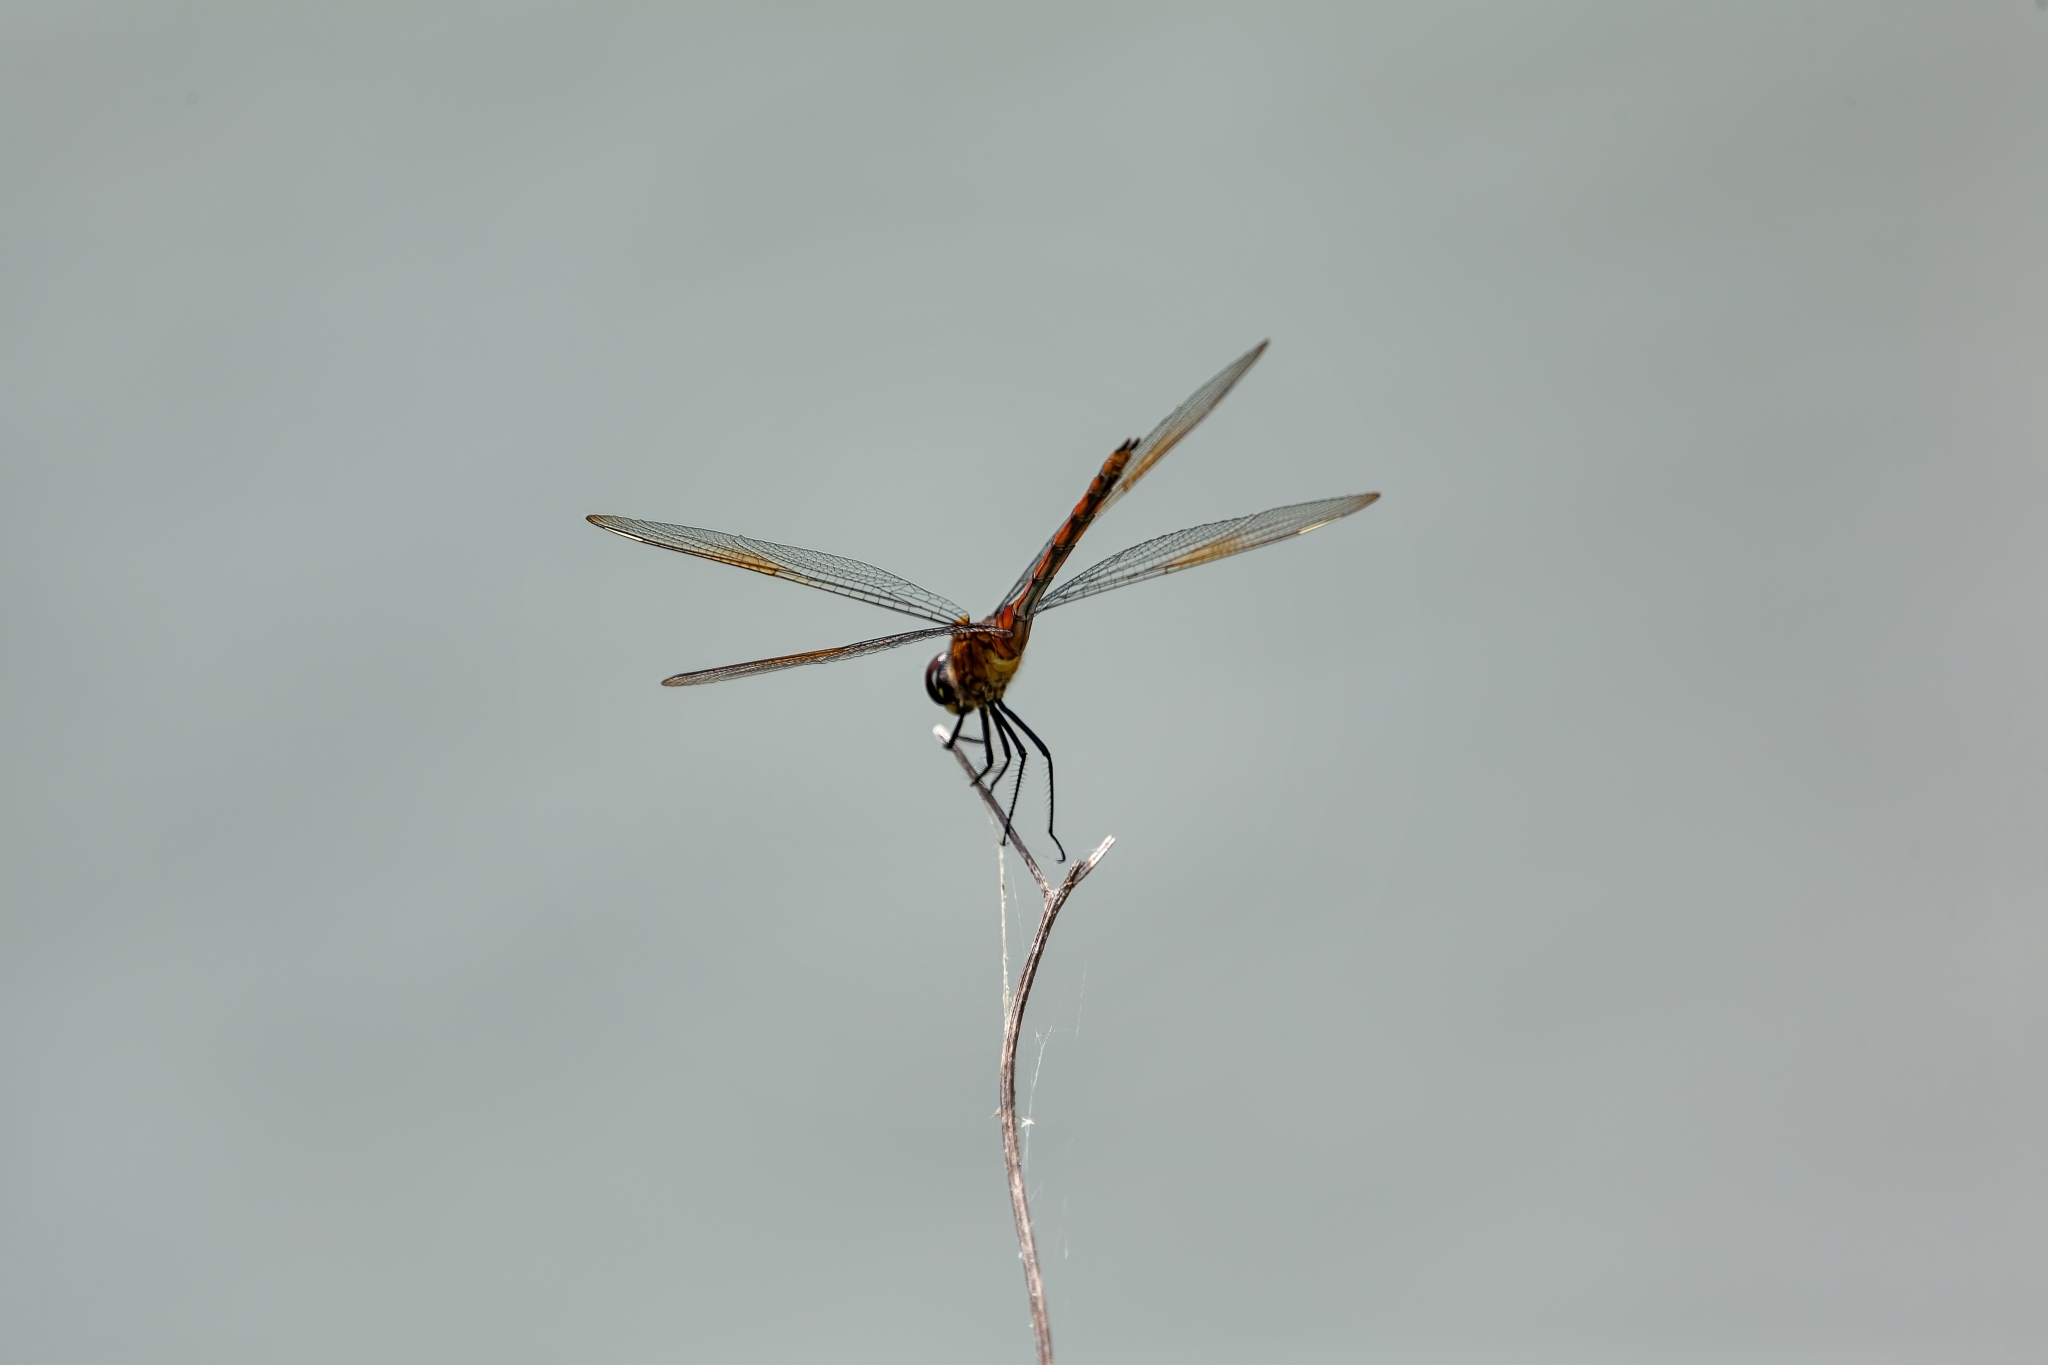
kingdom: Animalia
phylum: Arthropoda
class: Insecta
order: Odonata
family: Libellulidae
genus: Brachymesia
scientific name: Brachymesia gravida
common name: Four-spotted pennant
